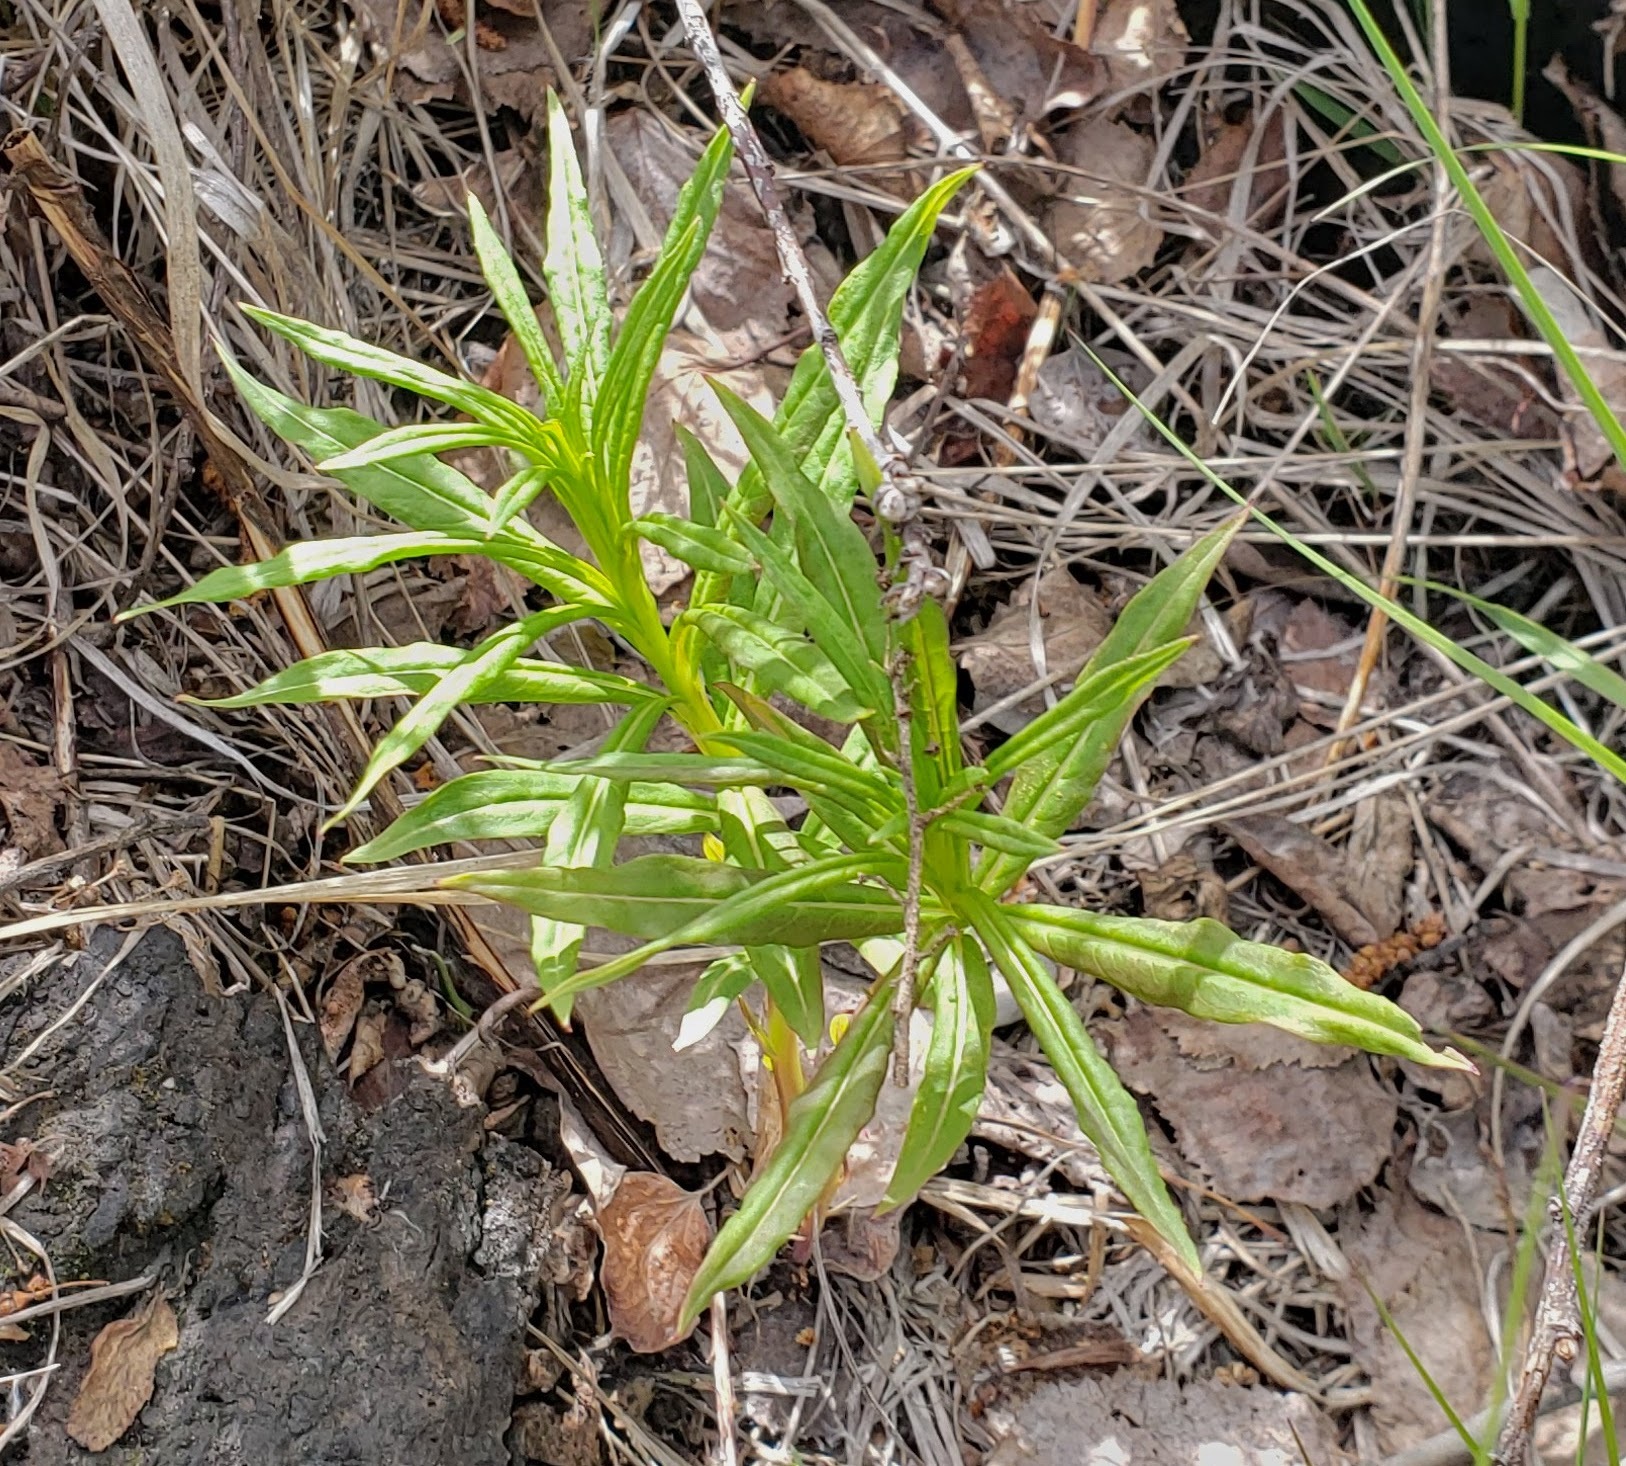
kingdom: Plantae
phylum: Tracheophyta
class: Magnoliopsida
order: Myrtales
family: Onagraceae
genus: Chamaenerion
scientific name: Chamaenerion angustifolium
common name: Fireweed
